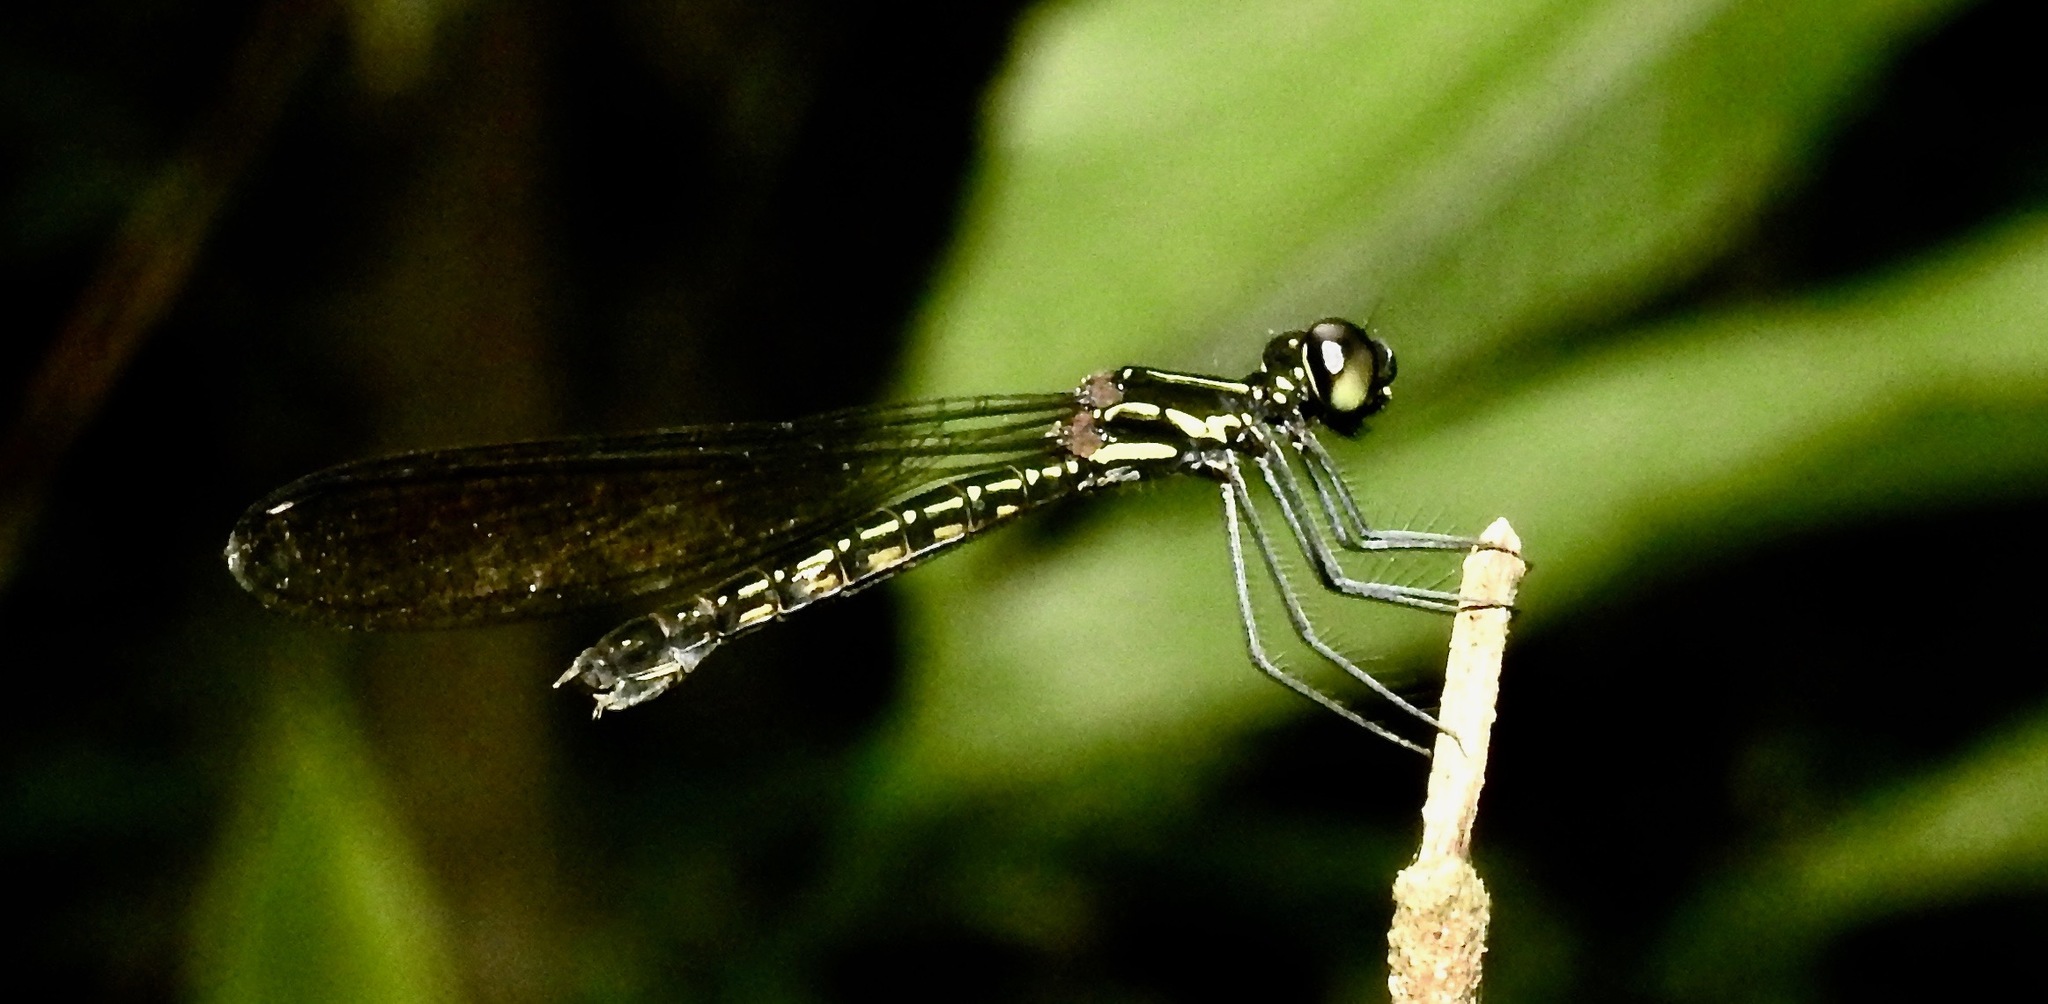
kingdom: Animalia
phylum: Arthropoda
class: Insecta
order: Odonata
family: Chlorocyphidae
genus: Libellago
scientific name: Libellago corbeti
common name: Ebony gem
